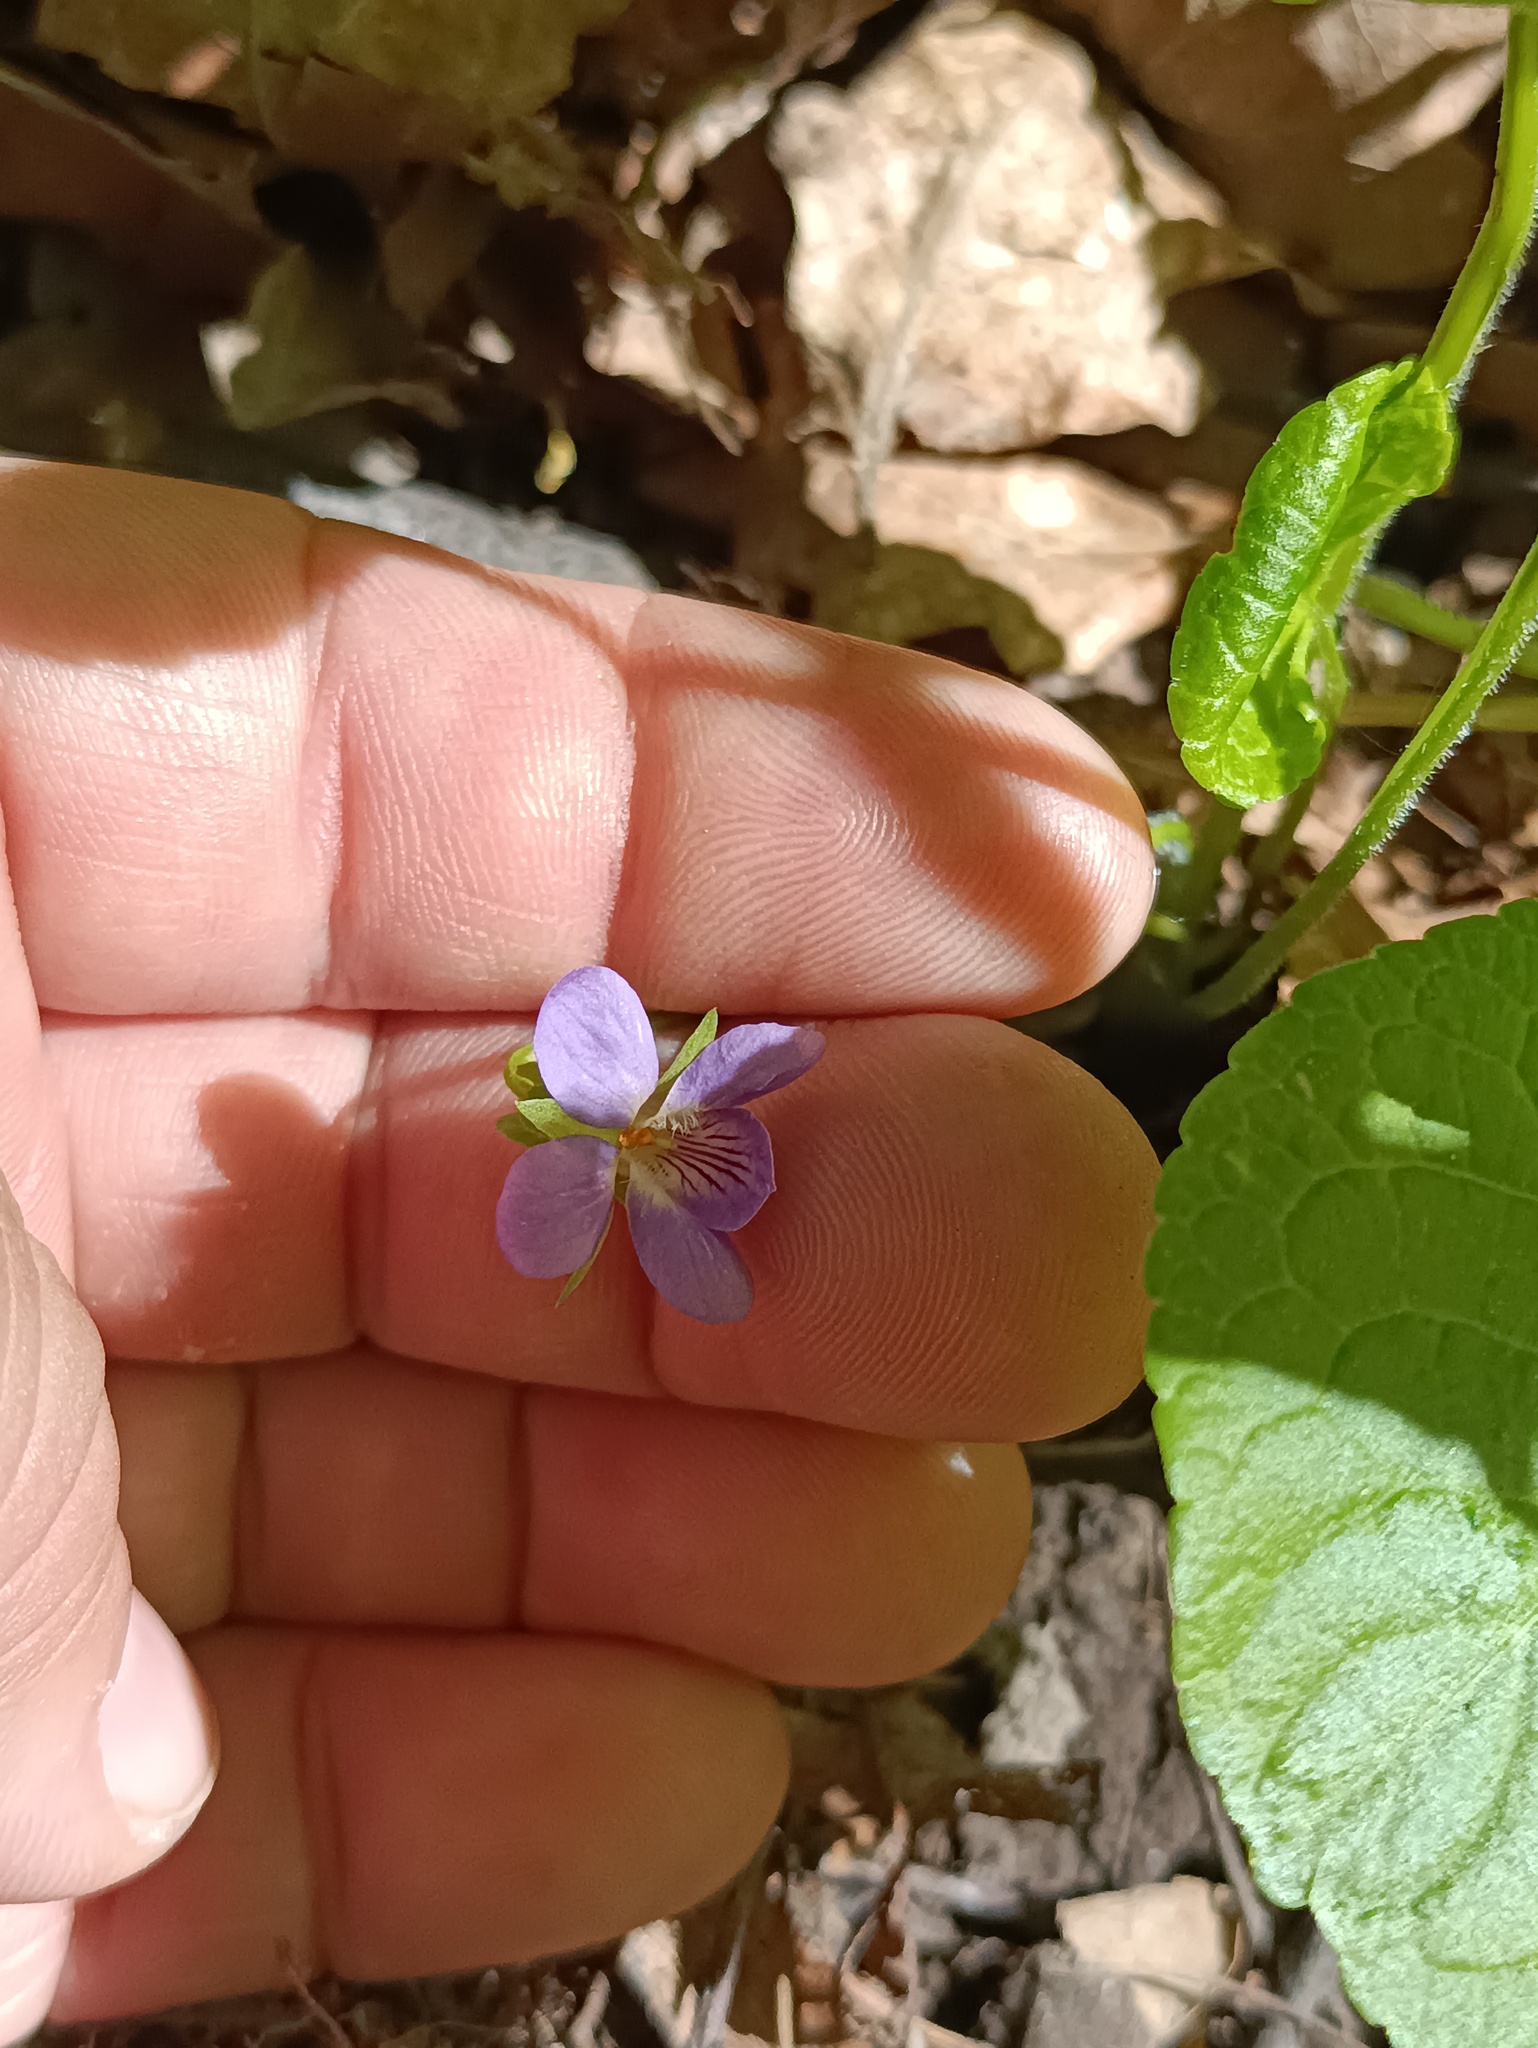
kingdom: Plantae
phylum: Tracheophyta
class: Magnoliopsida
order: Malpighiales
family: Violaceae
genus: Viola
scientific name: Viola mirabilis
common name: Wonder violet
